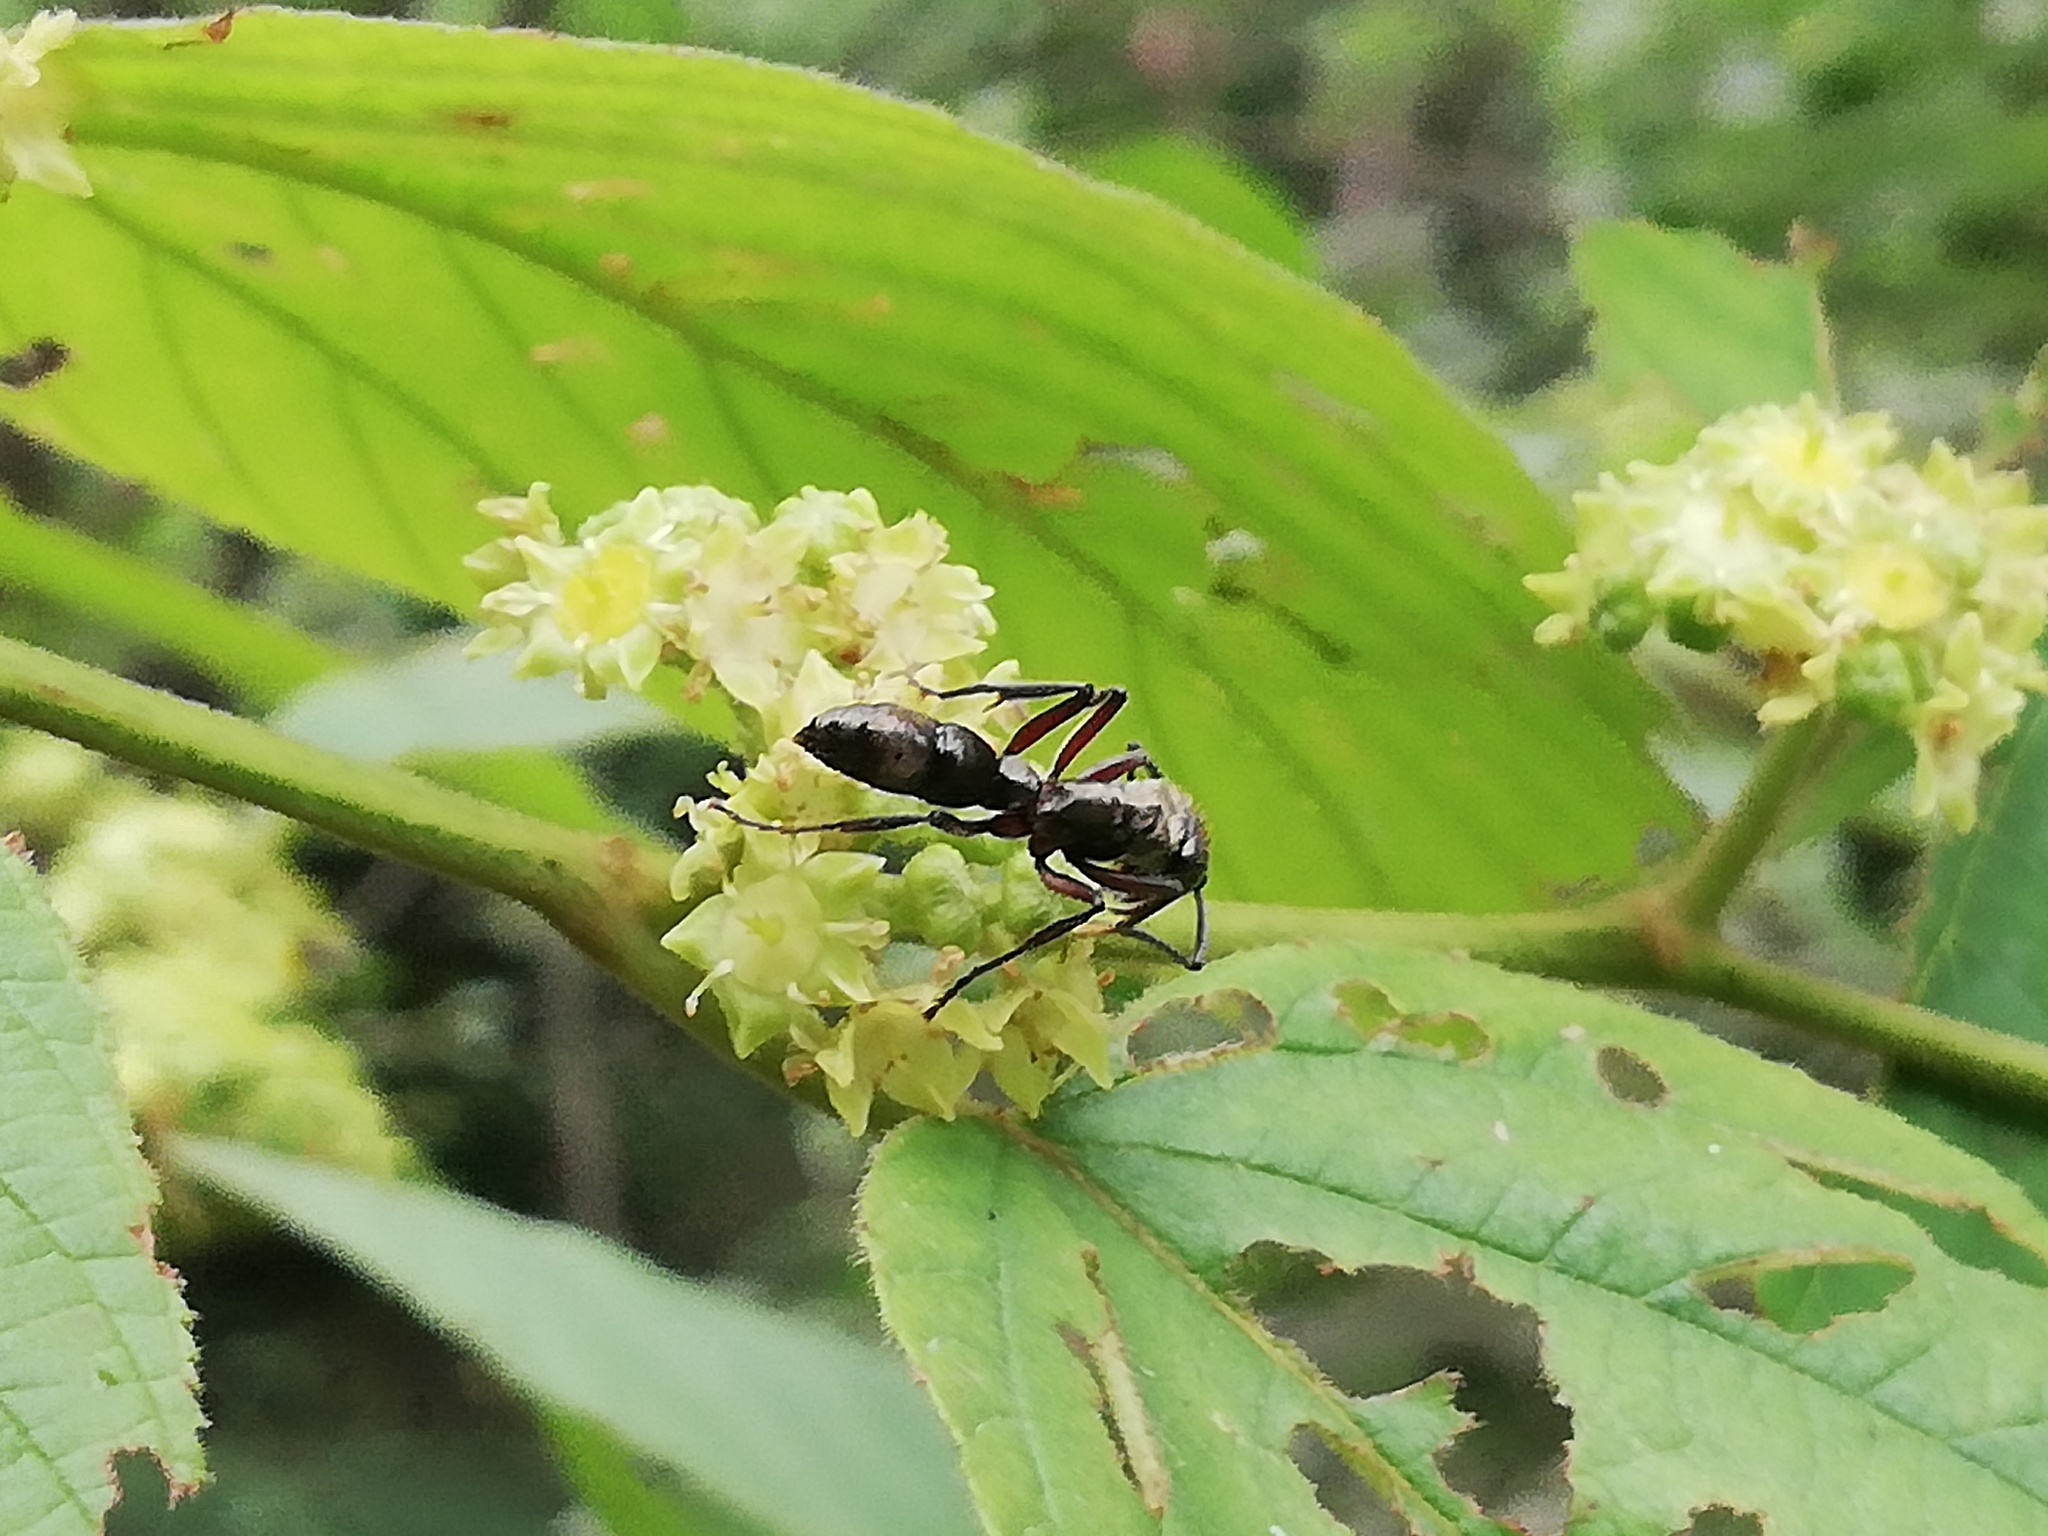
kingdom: Animalia
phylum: Arthropoda
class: Insecta
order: Hymenoptera
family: Formicidae
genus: Pachycondyla
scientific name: Pachycondyla villosa
